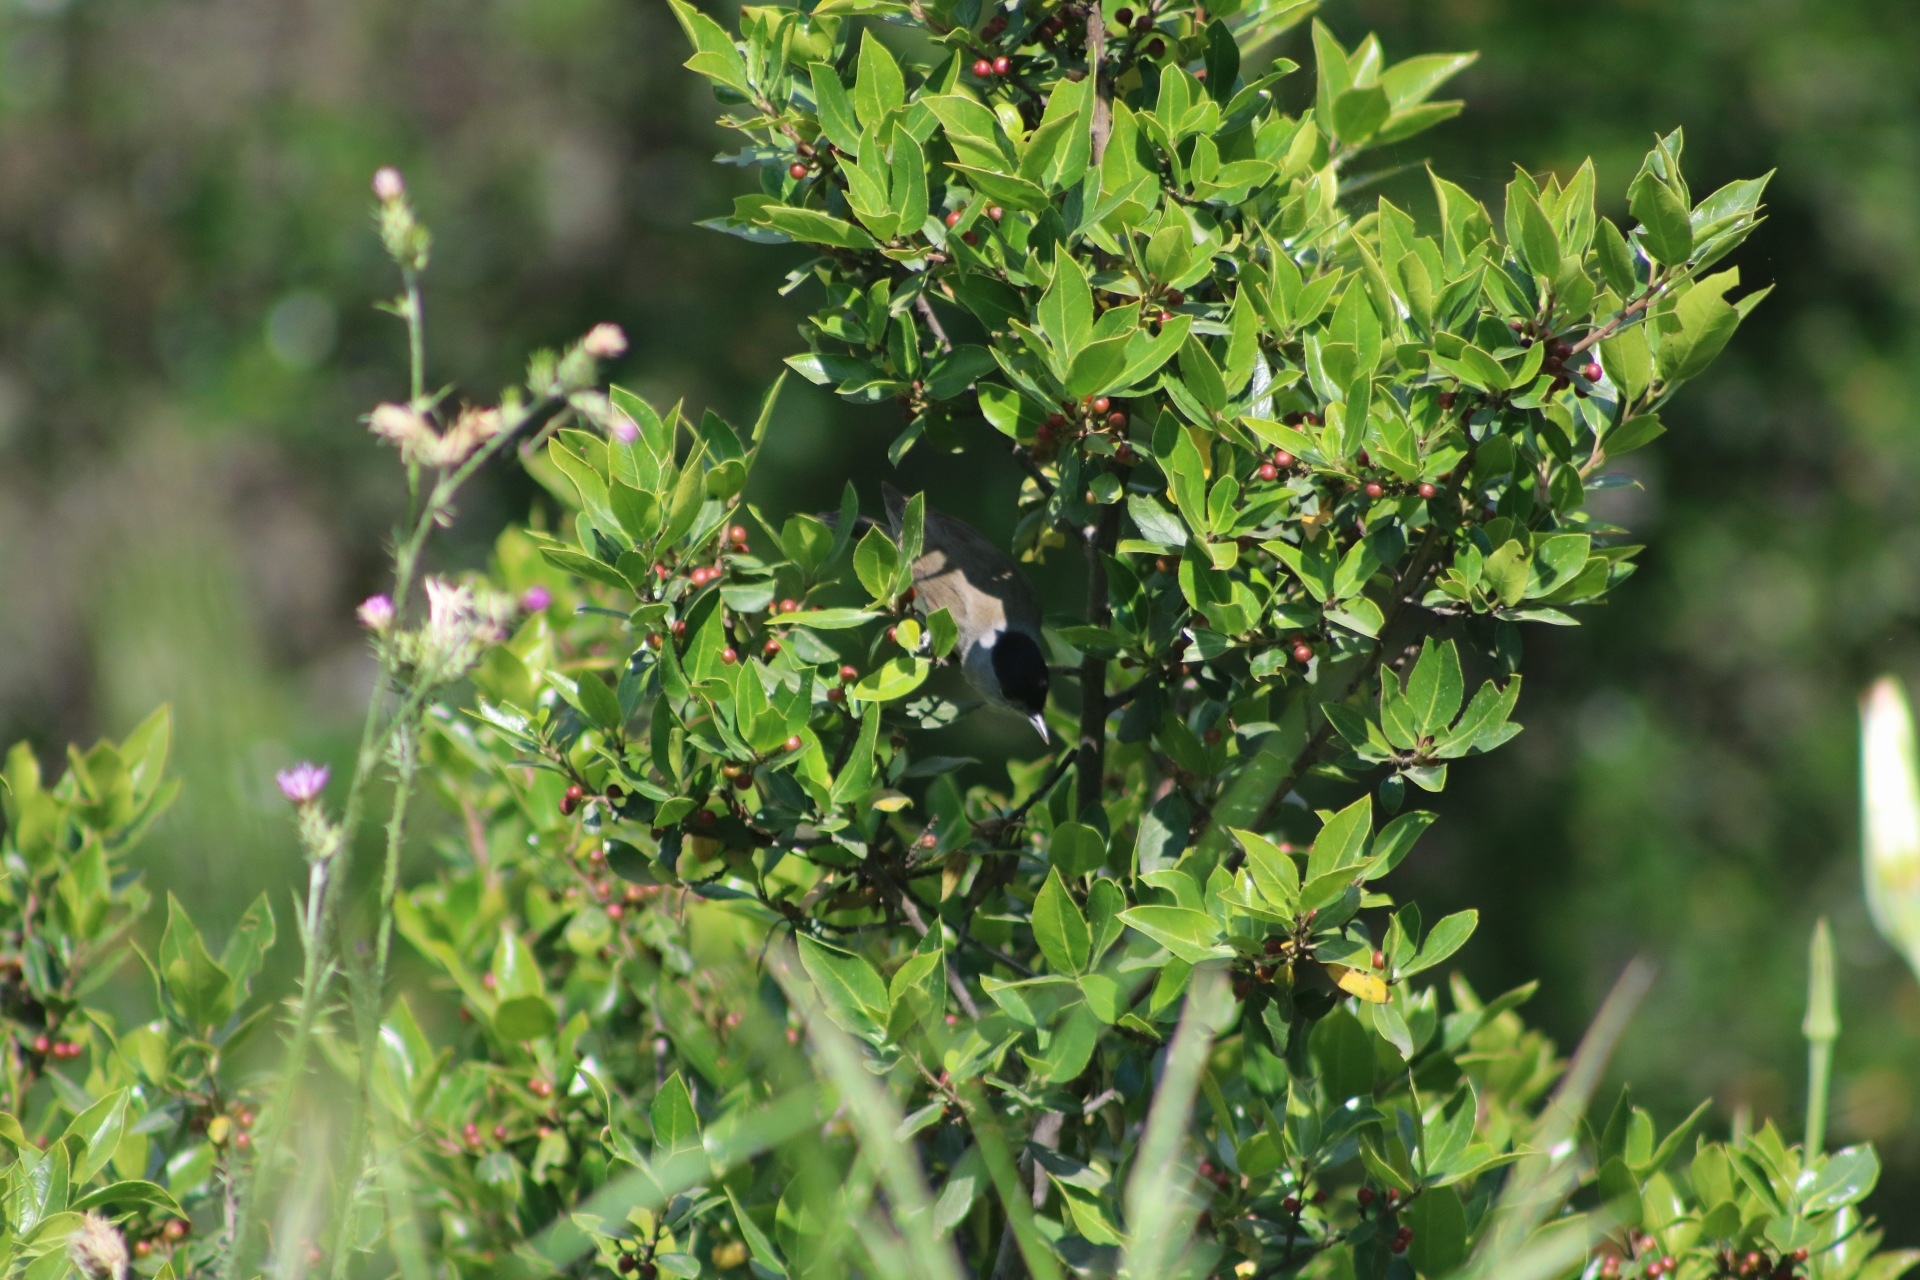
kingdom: Animalia
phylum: Chordata
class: Aves
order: Passeriformes
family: Sylviidae
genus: Sylvia
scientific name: Sylvia atricapilla
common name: Eurasian blackcap
